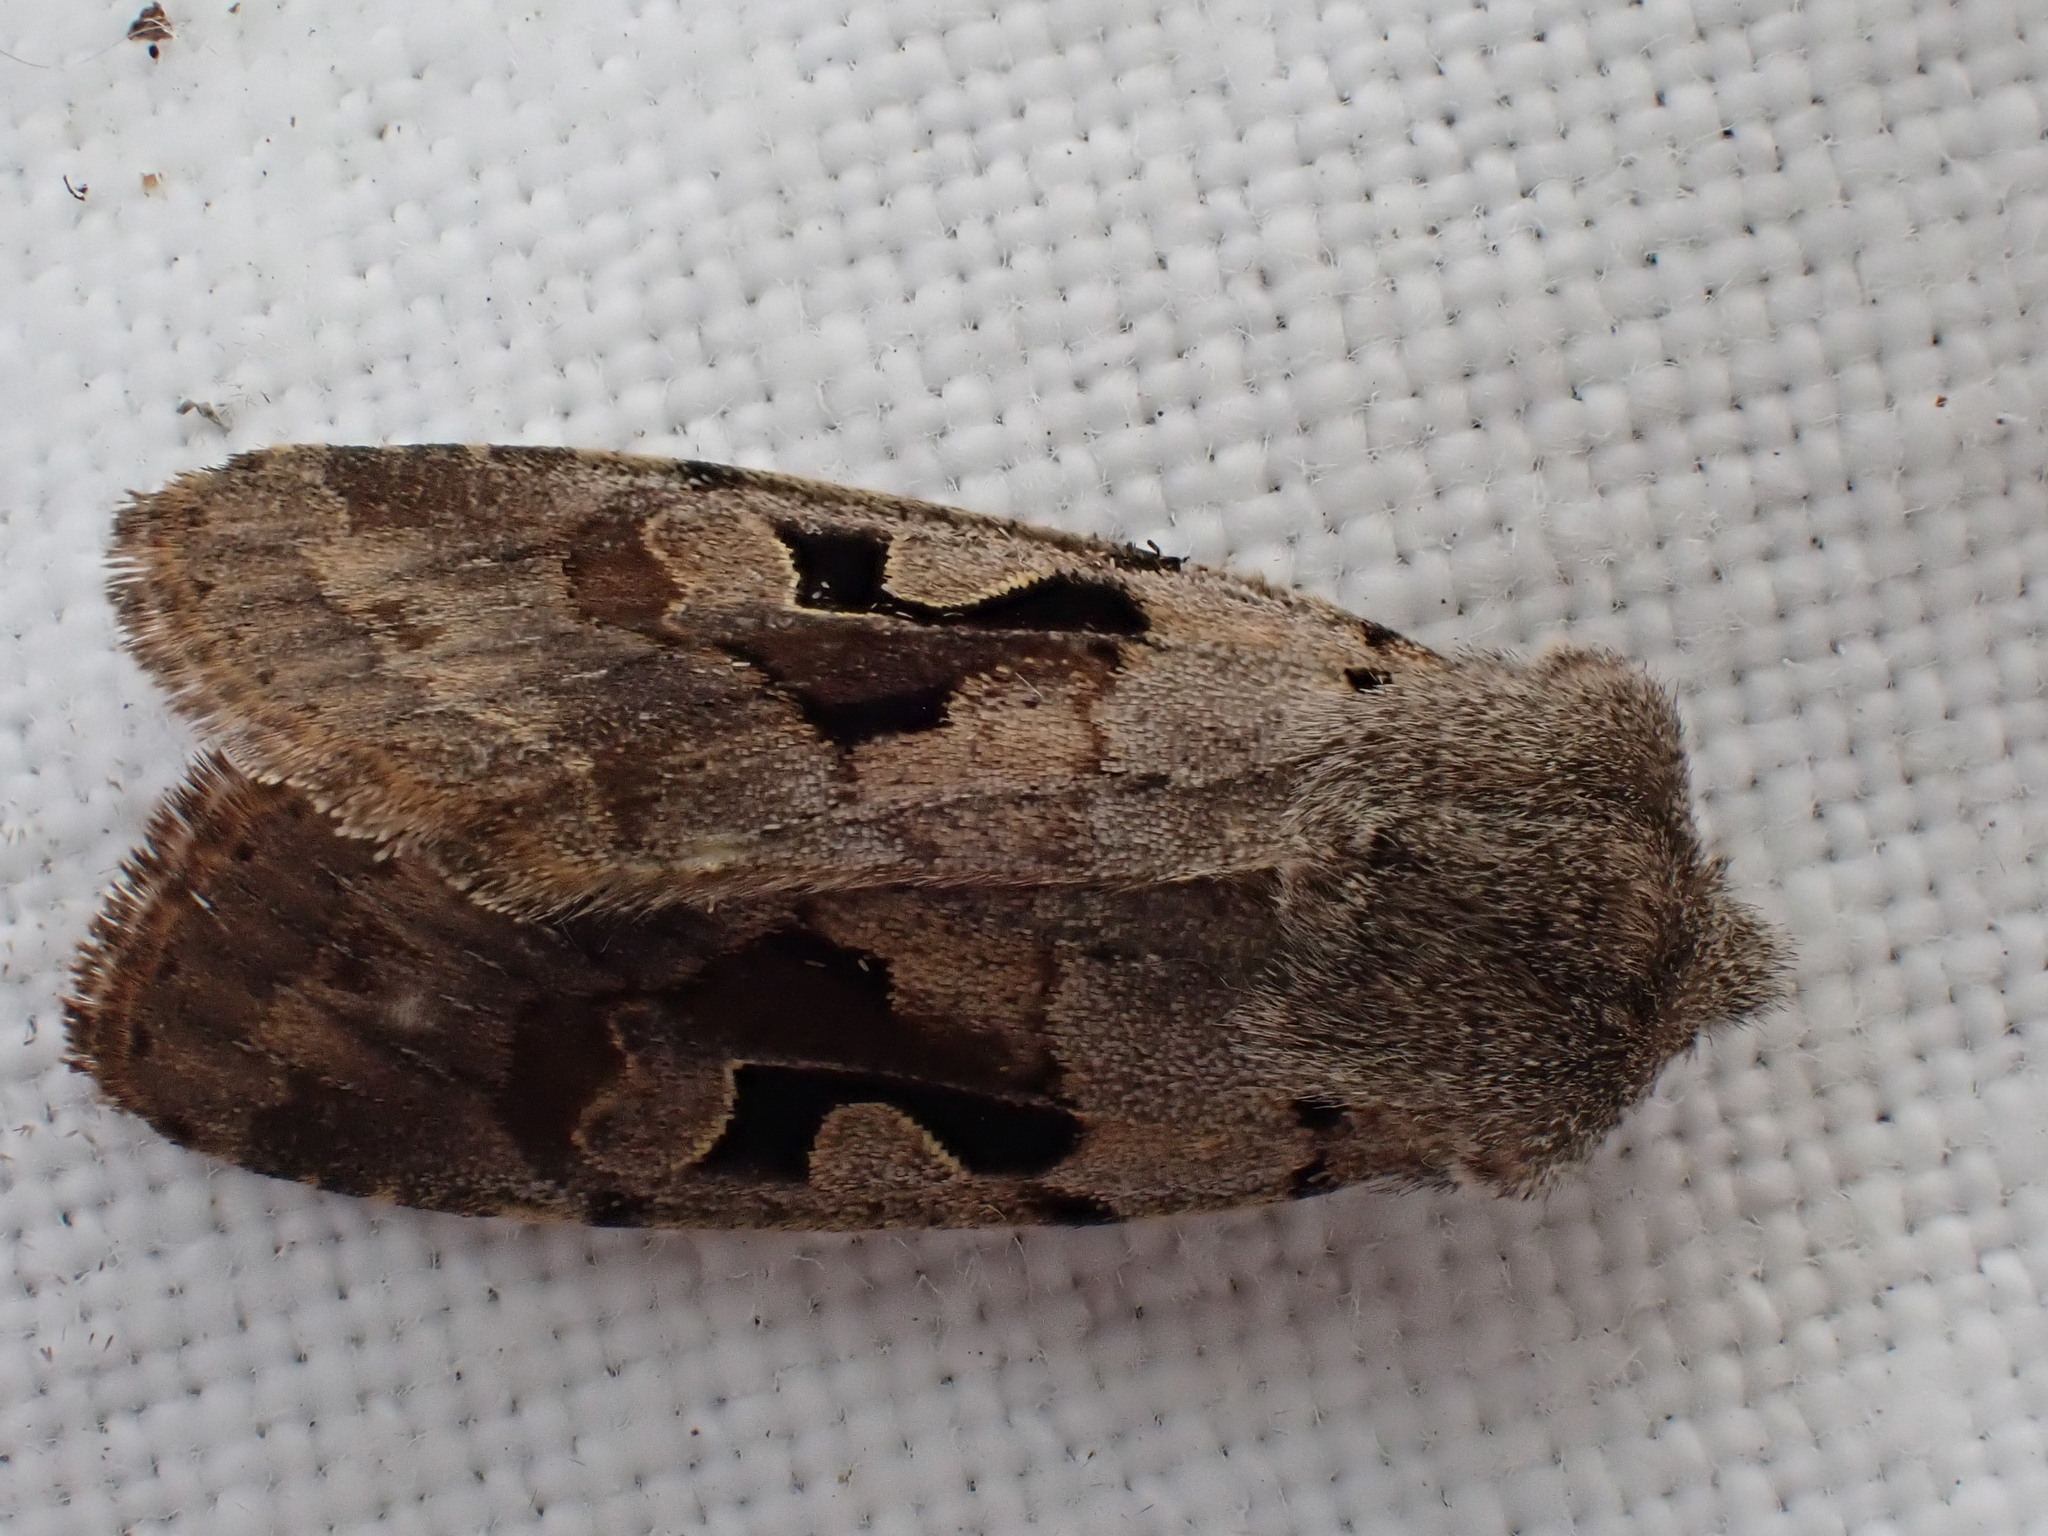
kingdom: Animalia
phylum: Arthropoda
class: Insecta
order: Lepidoptera
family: Noctuidae
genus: Orthosia
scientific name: Orthosia gothica
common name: Hebrew character
